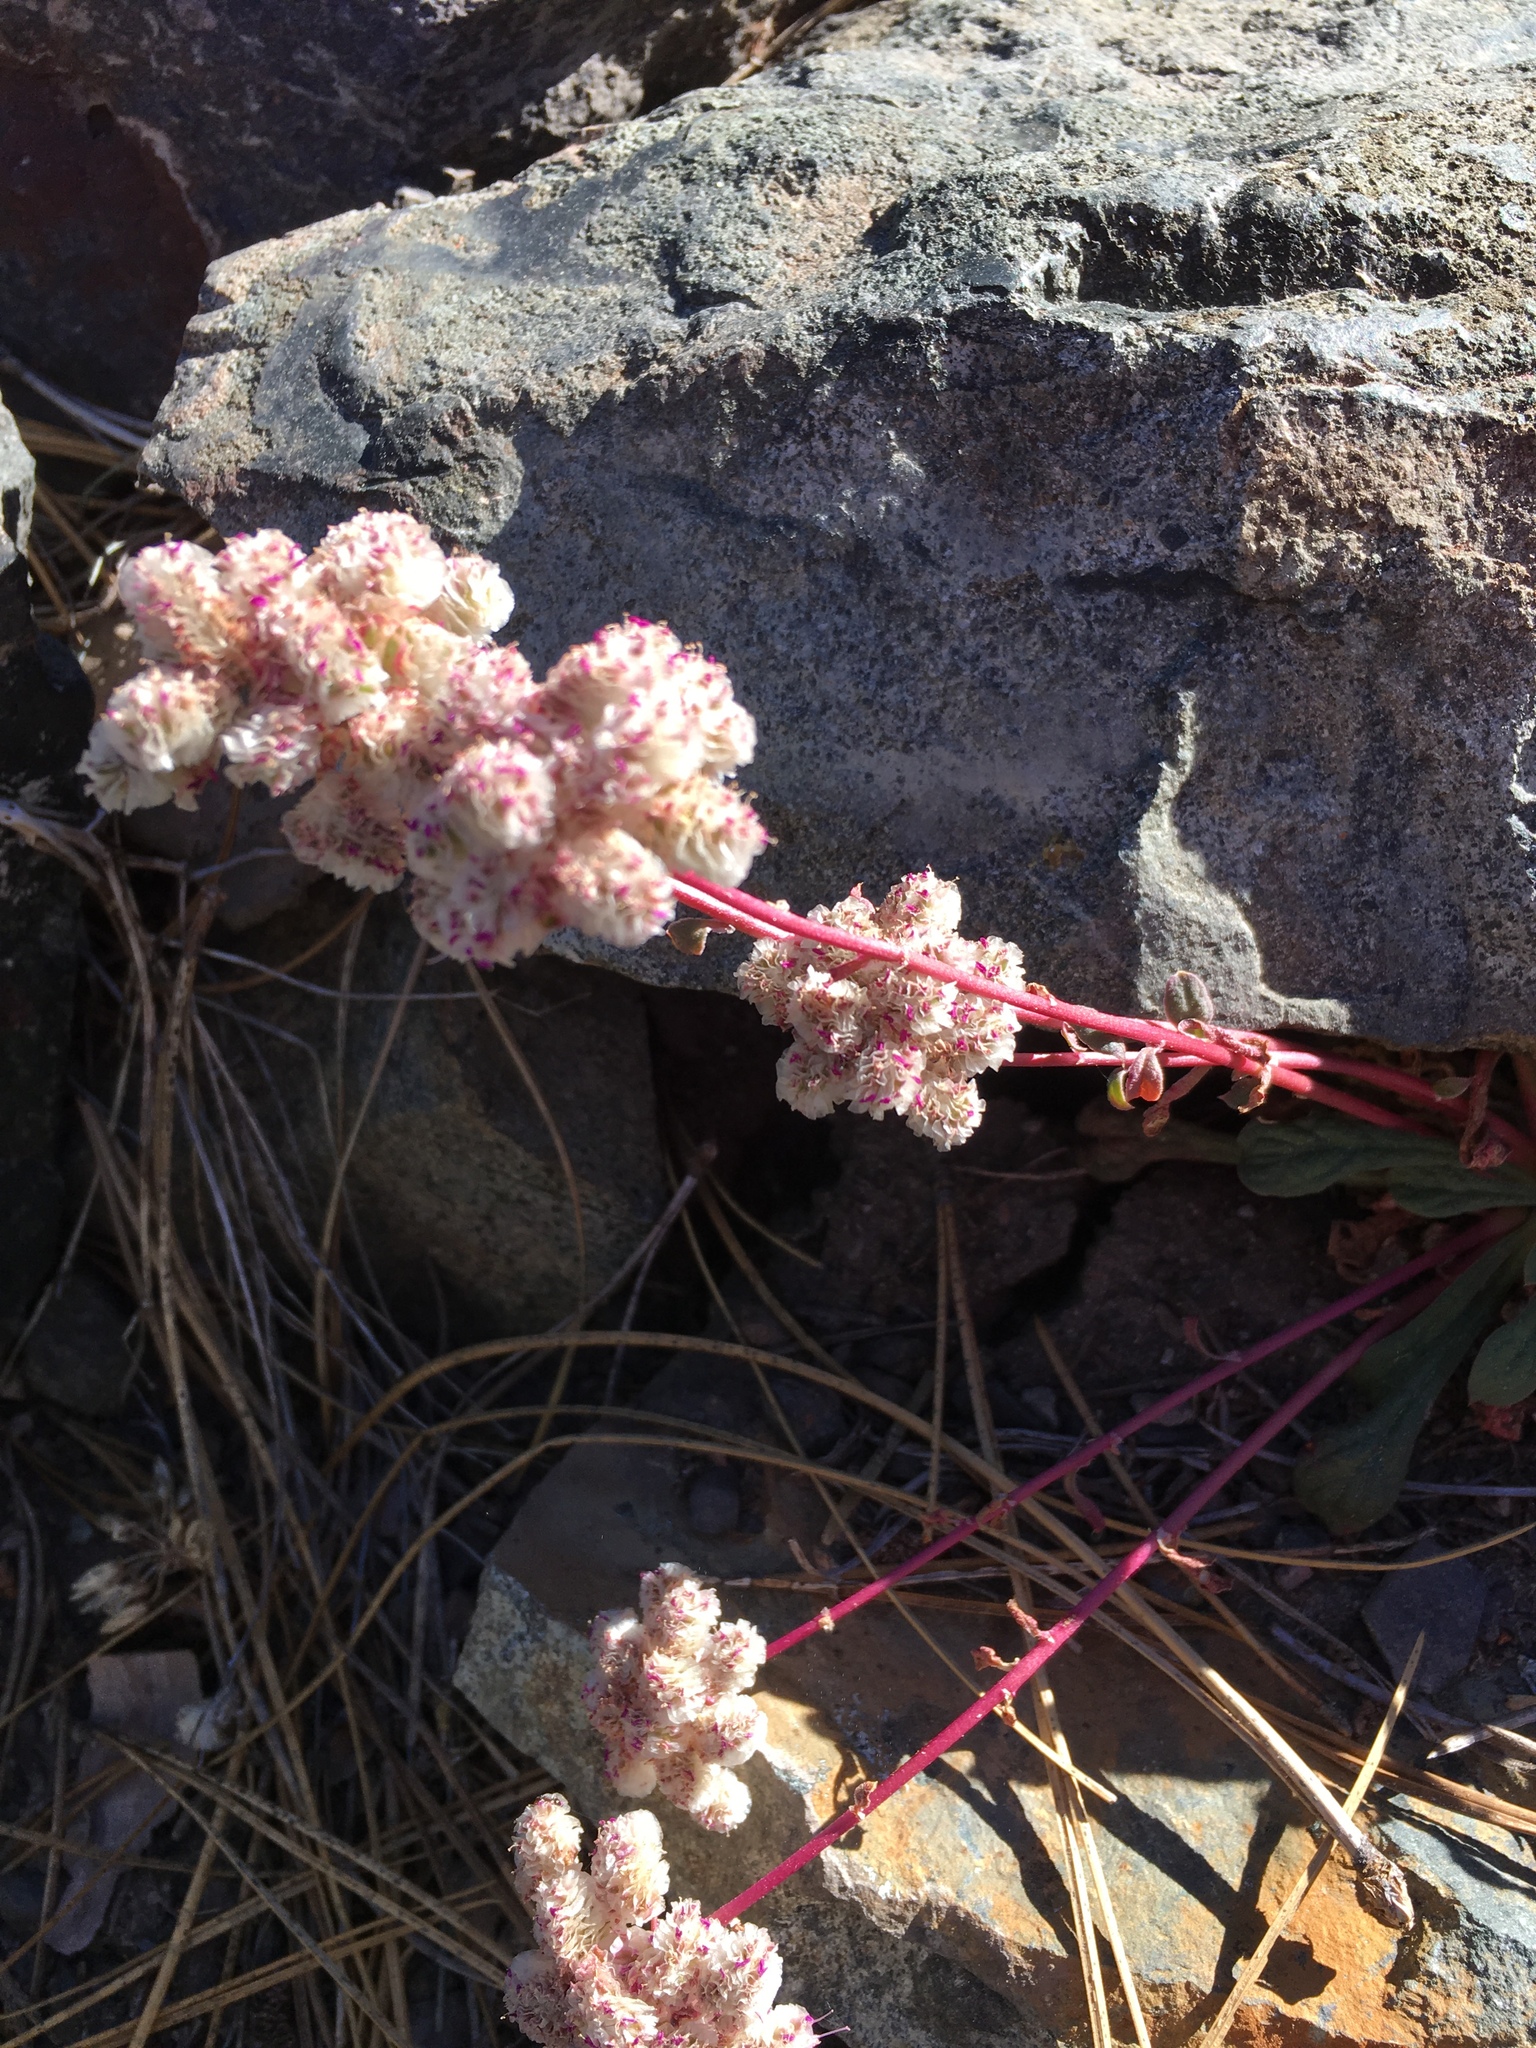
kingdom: Plantae
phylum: Tracheophyta
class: Magnoliopsida
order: Caryophyllales
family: Montiaceae
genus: Calyptridium
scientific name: Calyptridium monospermum
